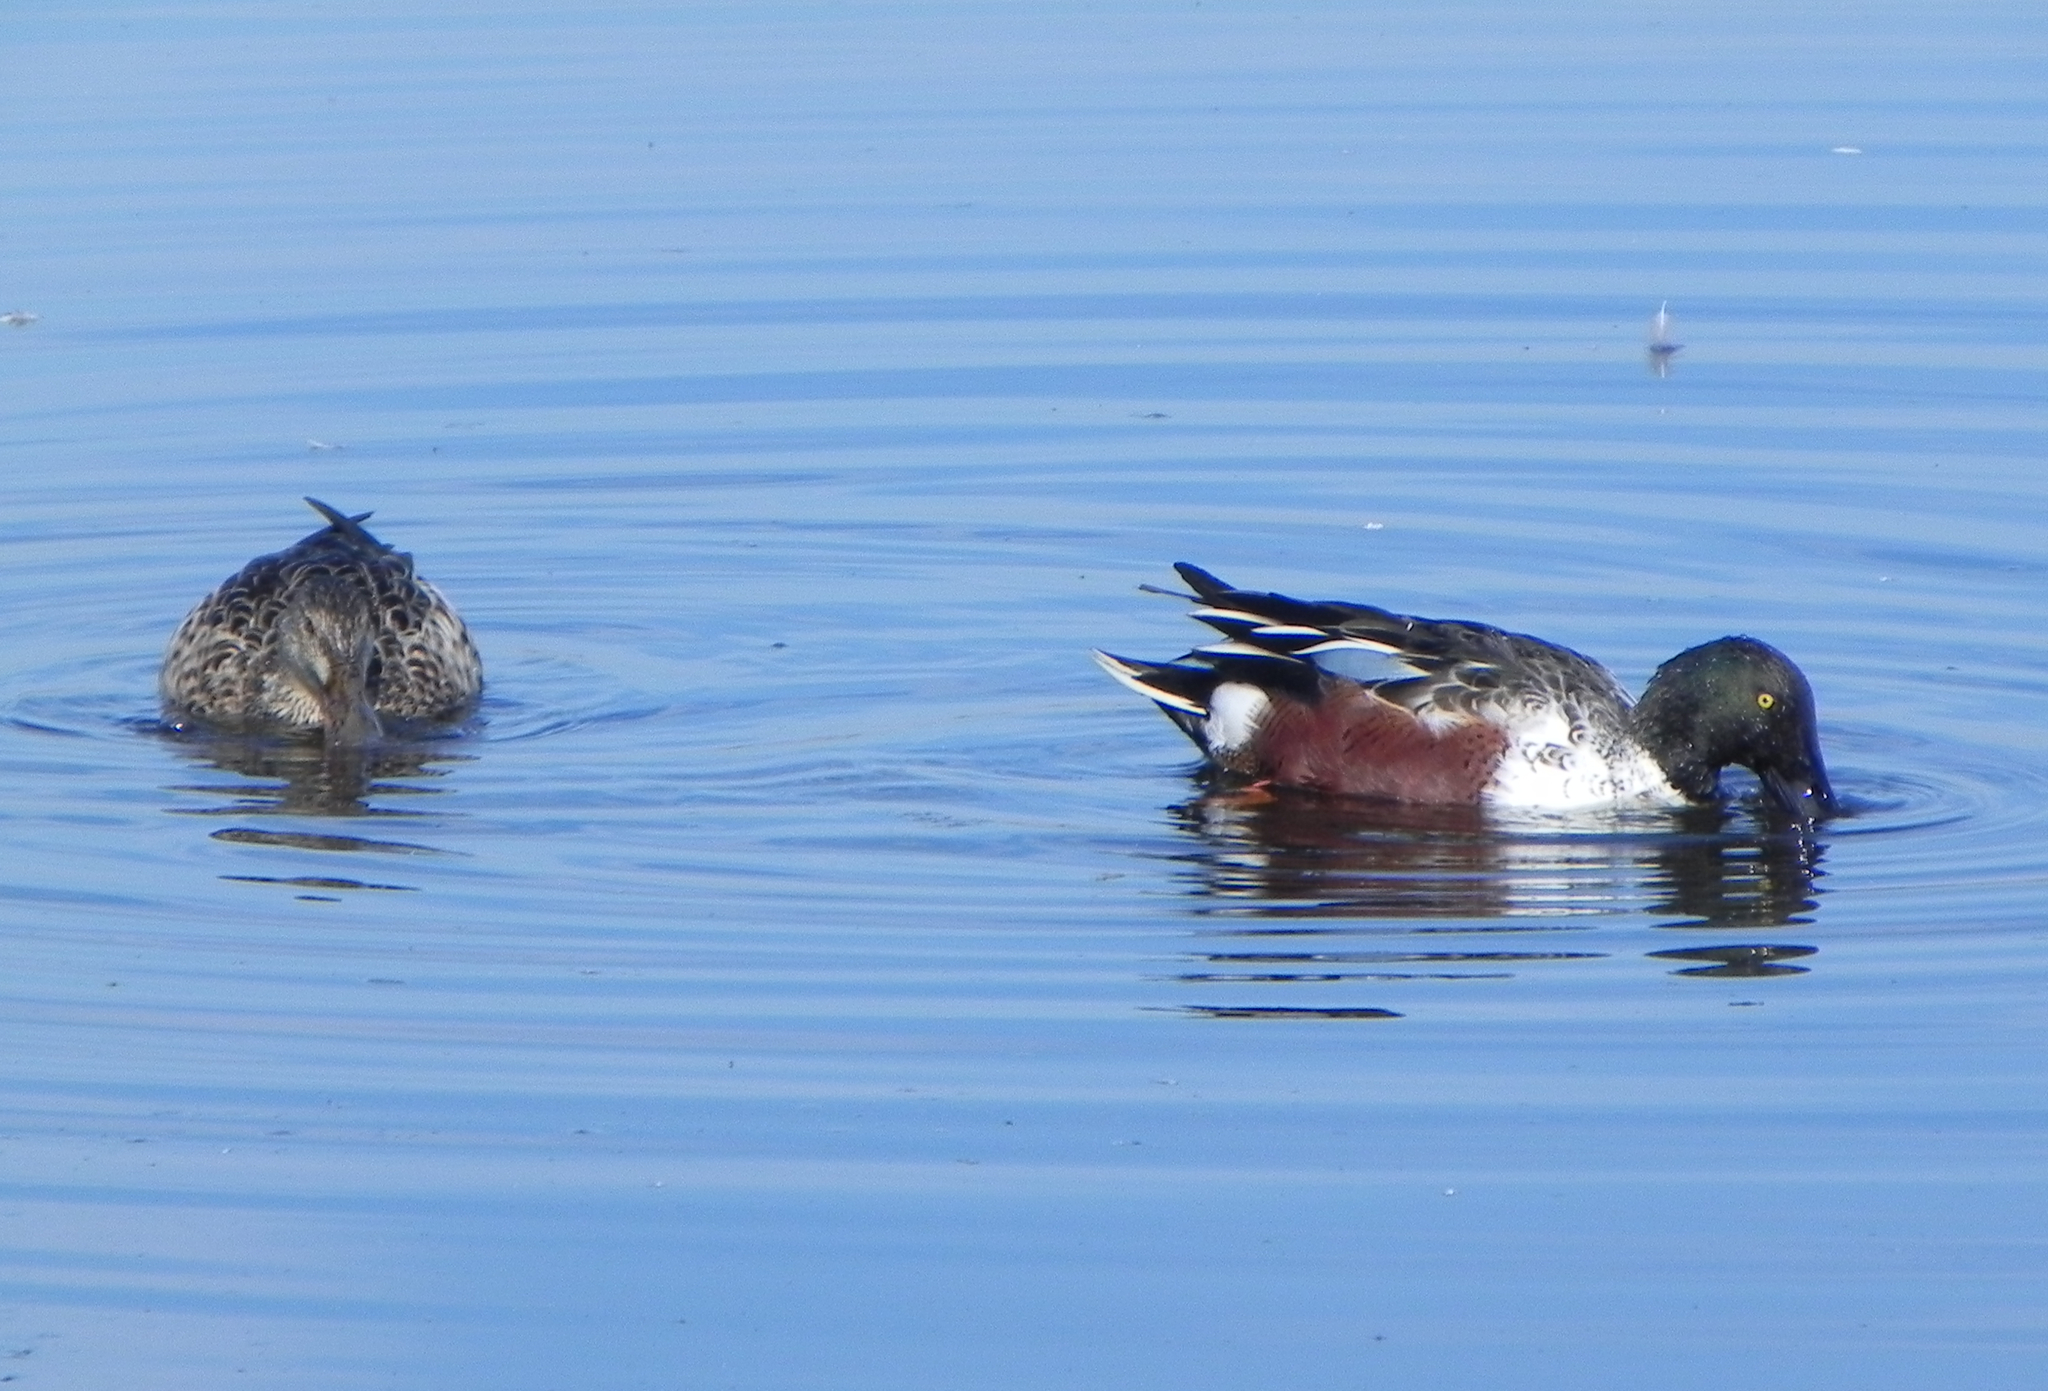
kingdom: Animalia
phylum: Chordata
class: Aves
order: Anseriformes
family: Anatidae
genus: Spatula
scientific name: Spatula clypeata
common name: Northern shoveler
